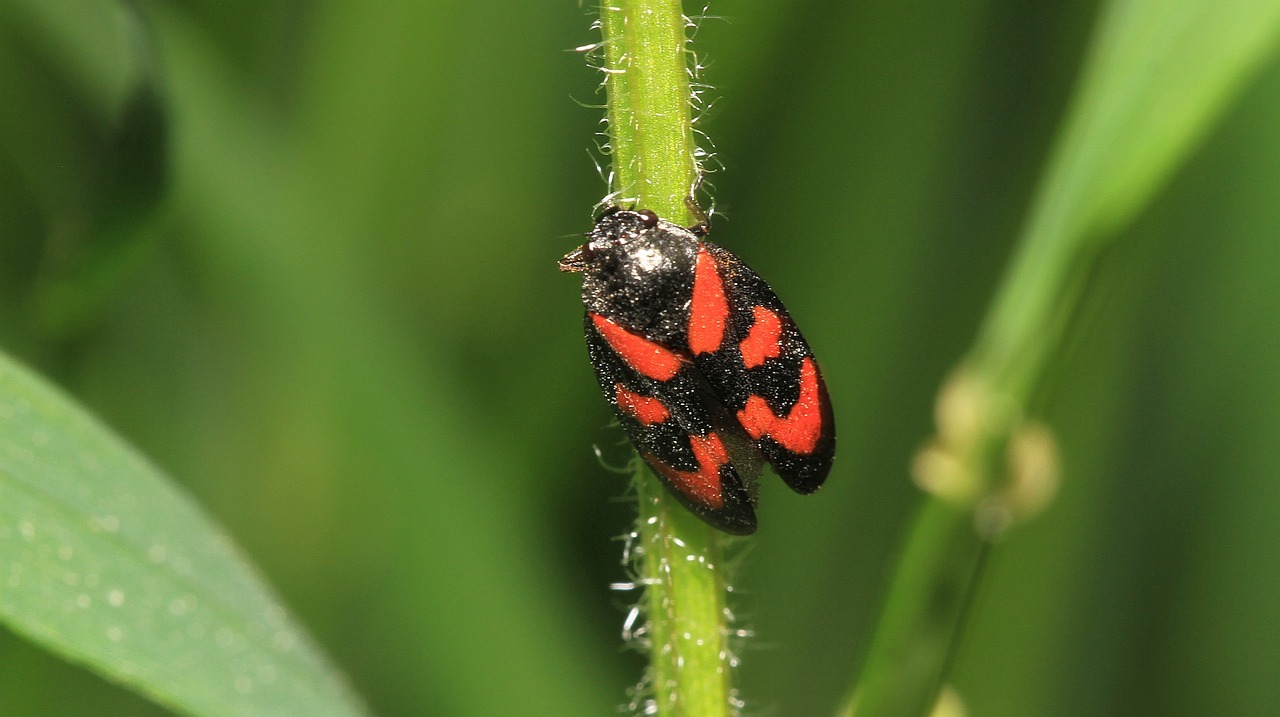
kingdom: Animalia
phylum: Arthropoda
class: Insecta
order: Hemiptera
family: Cercopidae
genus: Cercopis
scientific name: Cercopis vulnerata
